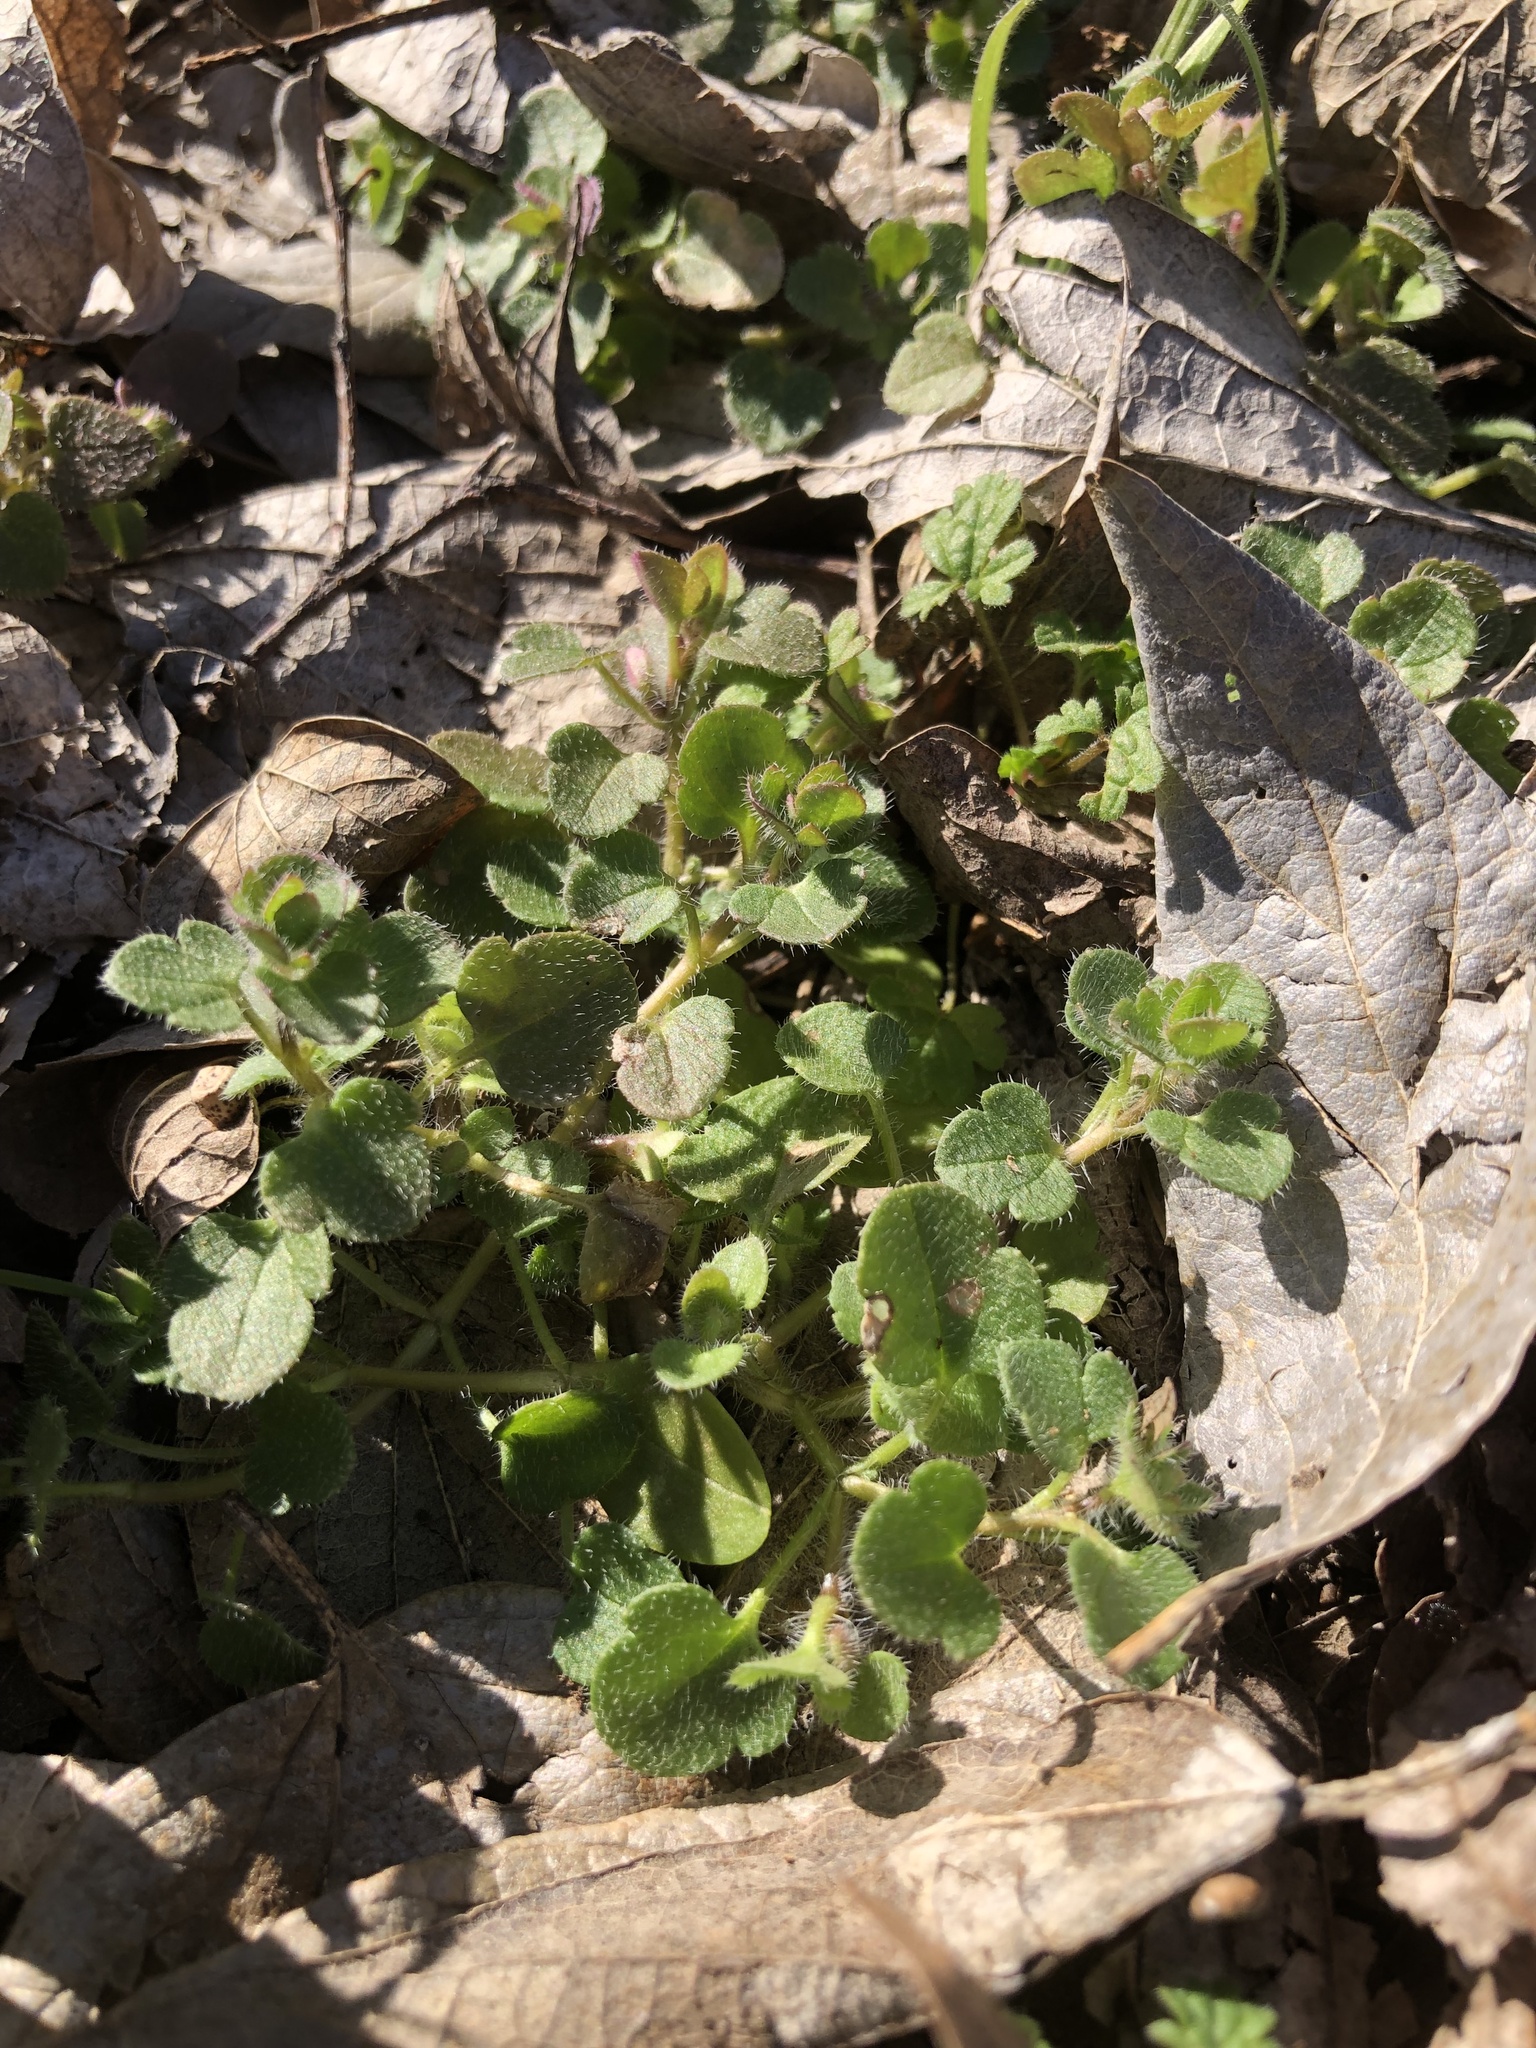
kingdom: Plantae
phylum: Tracheophyta
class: Magnoliopsida
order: Lamiales
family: Plantaginaceae
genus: Veronica
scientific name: Veronica hederifolia
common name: Ivy-leaved speedwell
